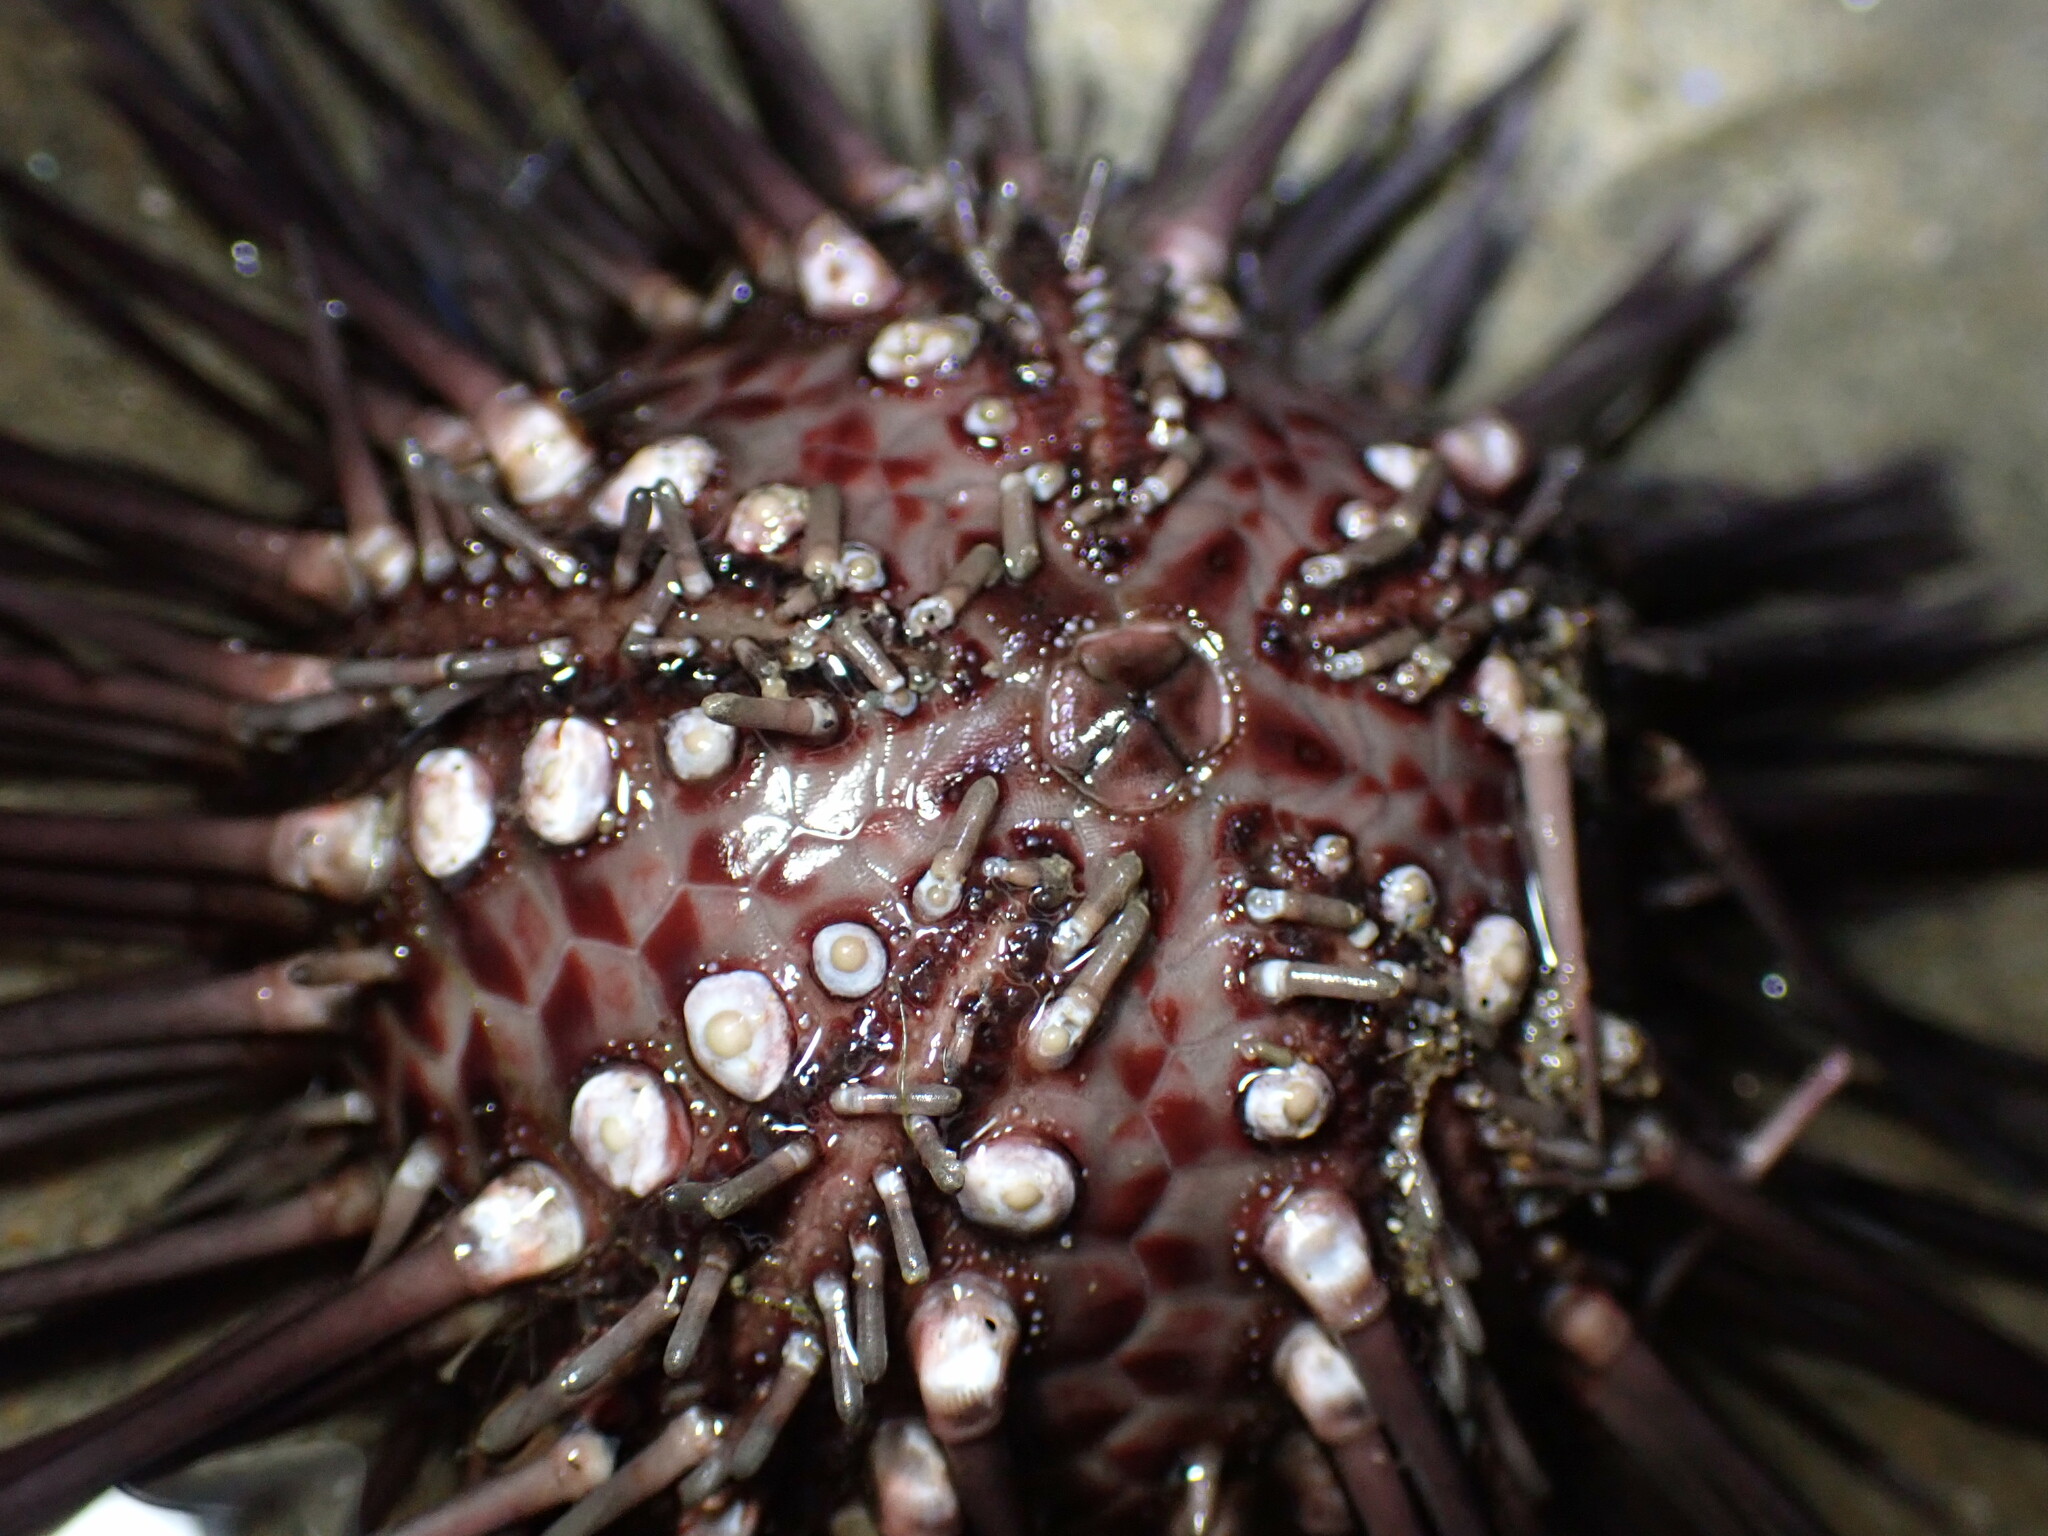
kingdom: Animalia
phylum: Echinodermata
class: Echinoidea
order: Arbacioida
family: Arbaciidae
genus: Arbacia
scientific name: Arbacia stellata
